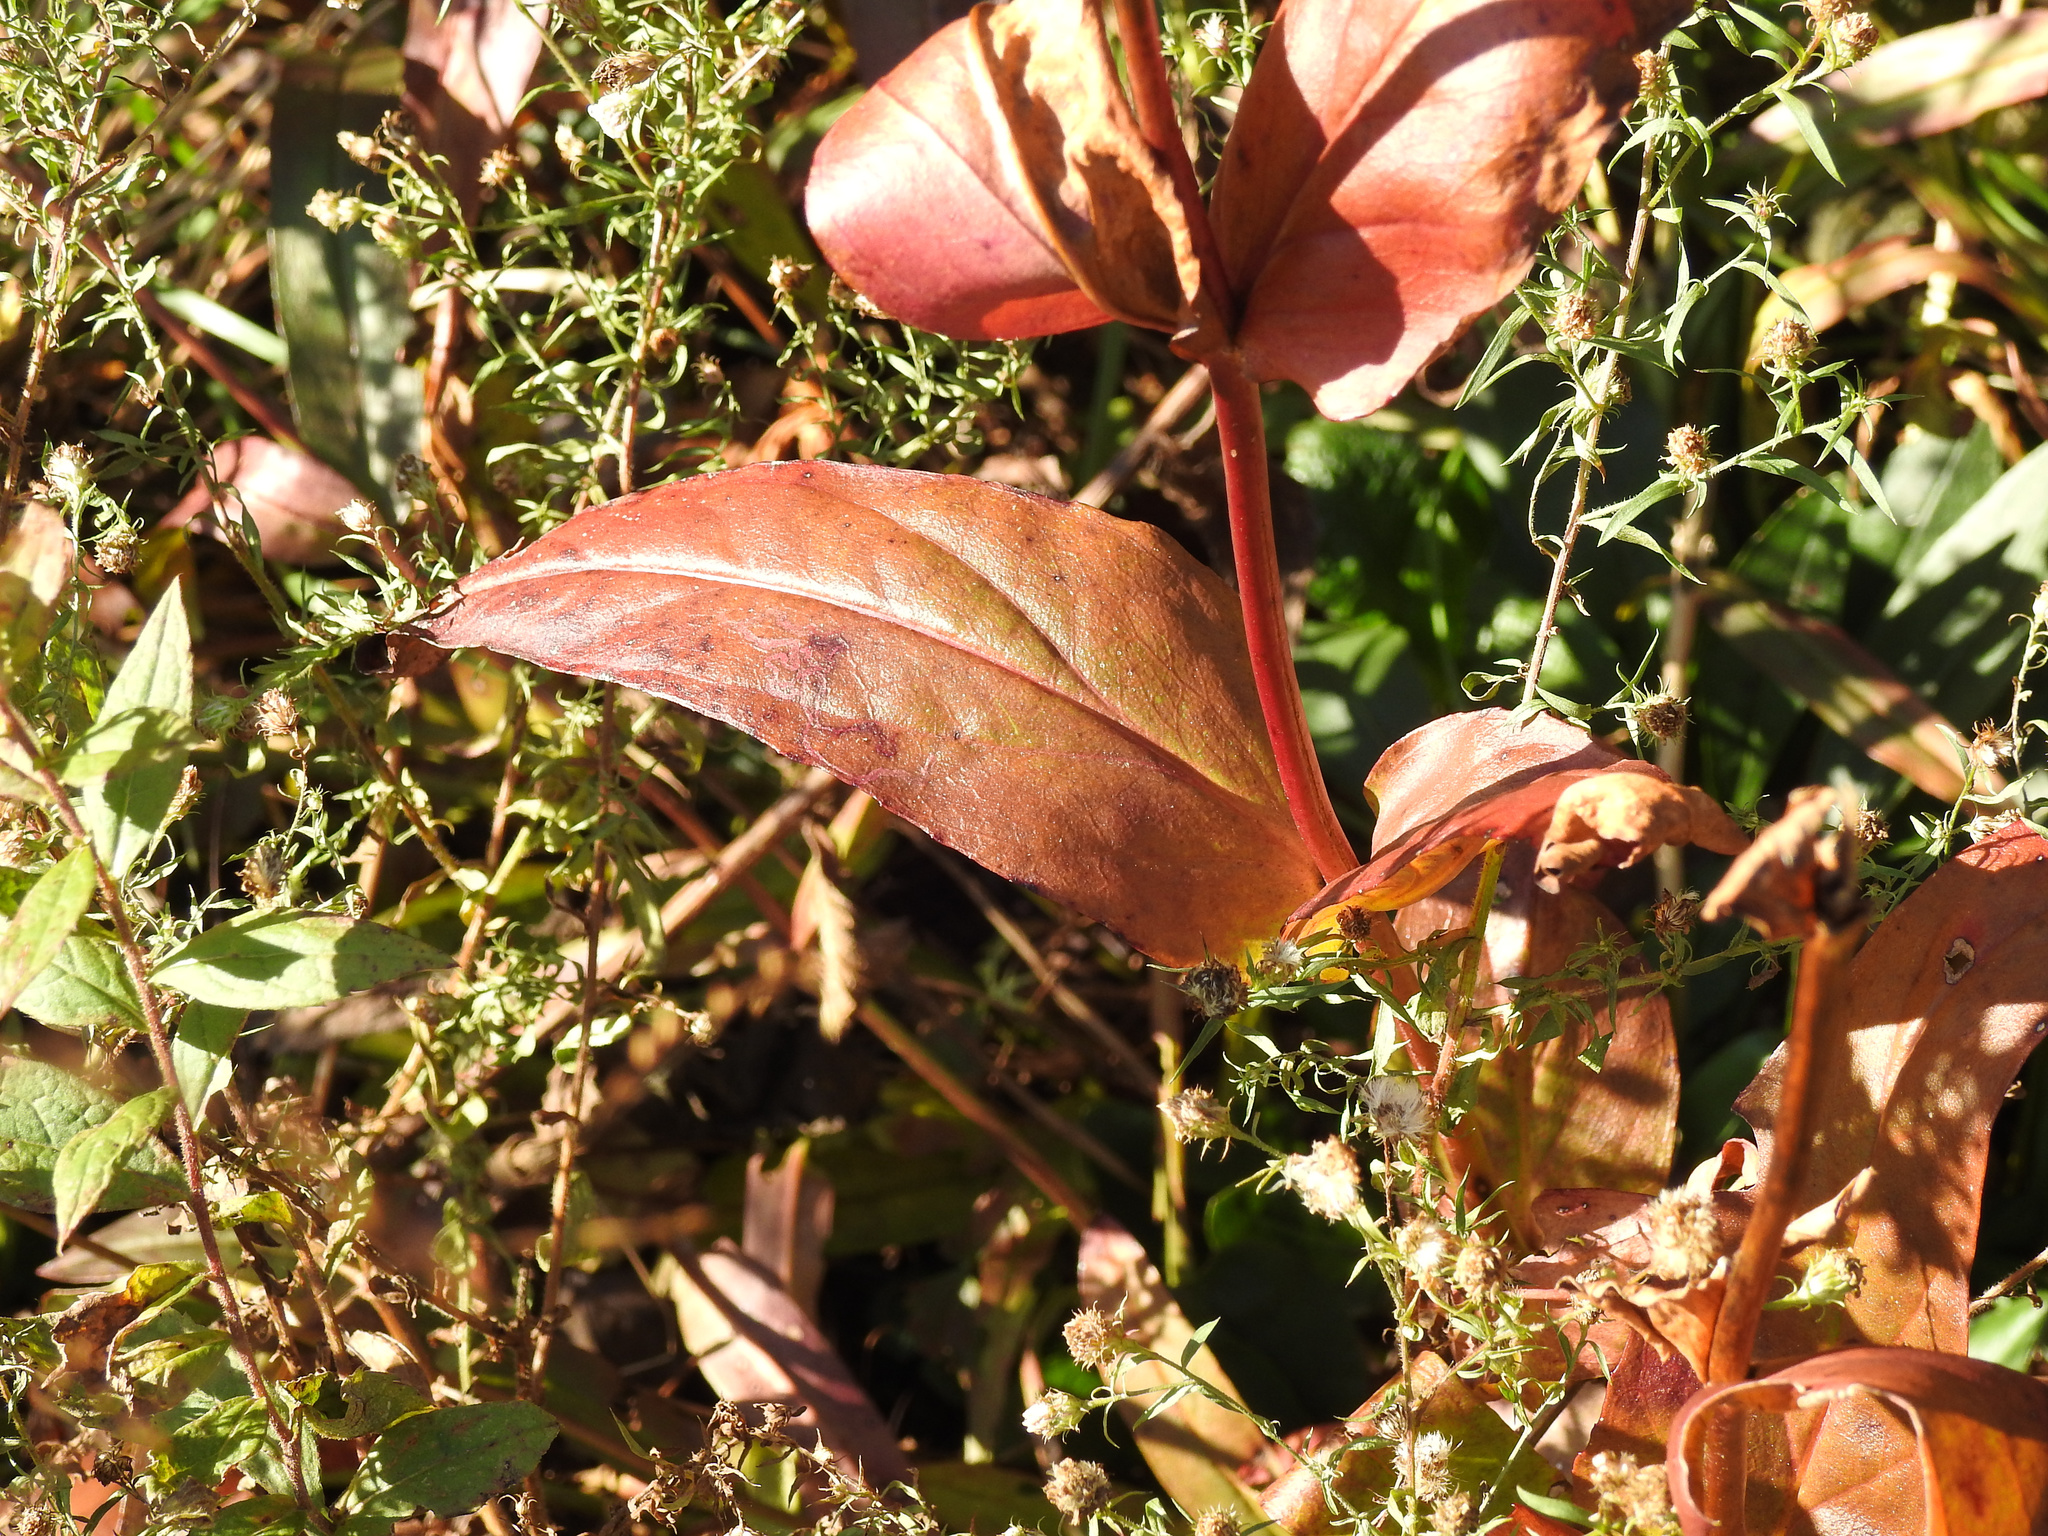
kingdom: Plantae
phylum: Tracheophyta
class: Magnoliopsida
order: Lamiales
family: Plantaginaceae
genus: Penstemon
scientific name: Penstemon digitalis
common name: Foxglove beardtongue
